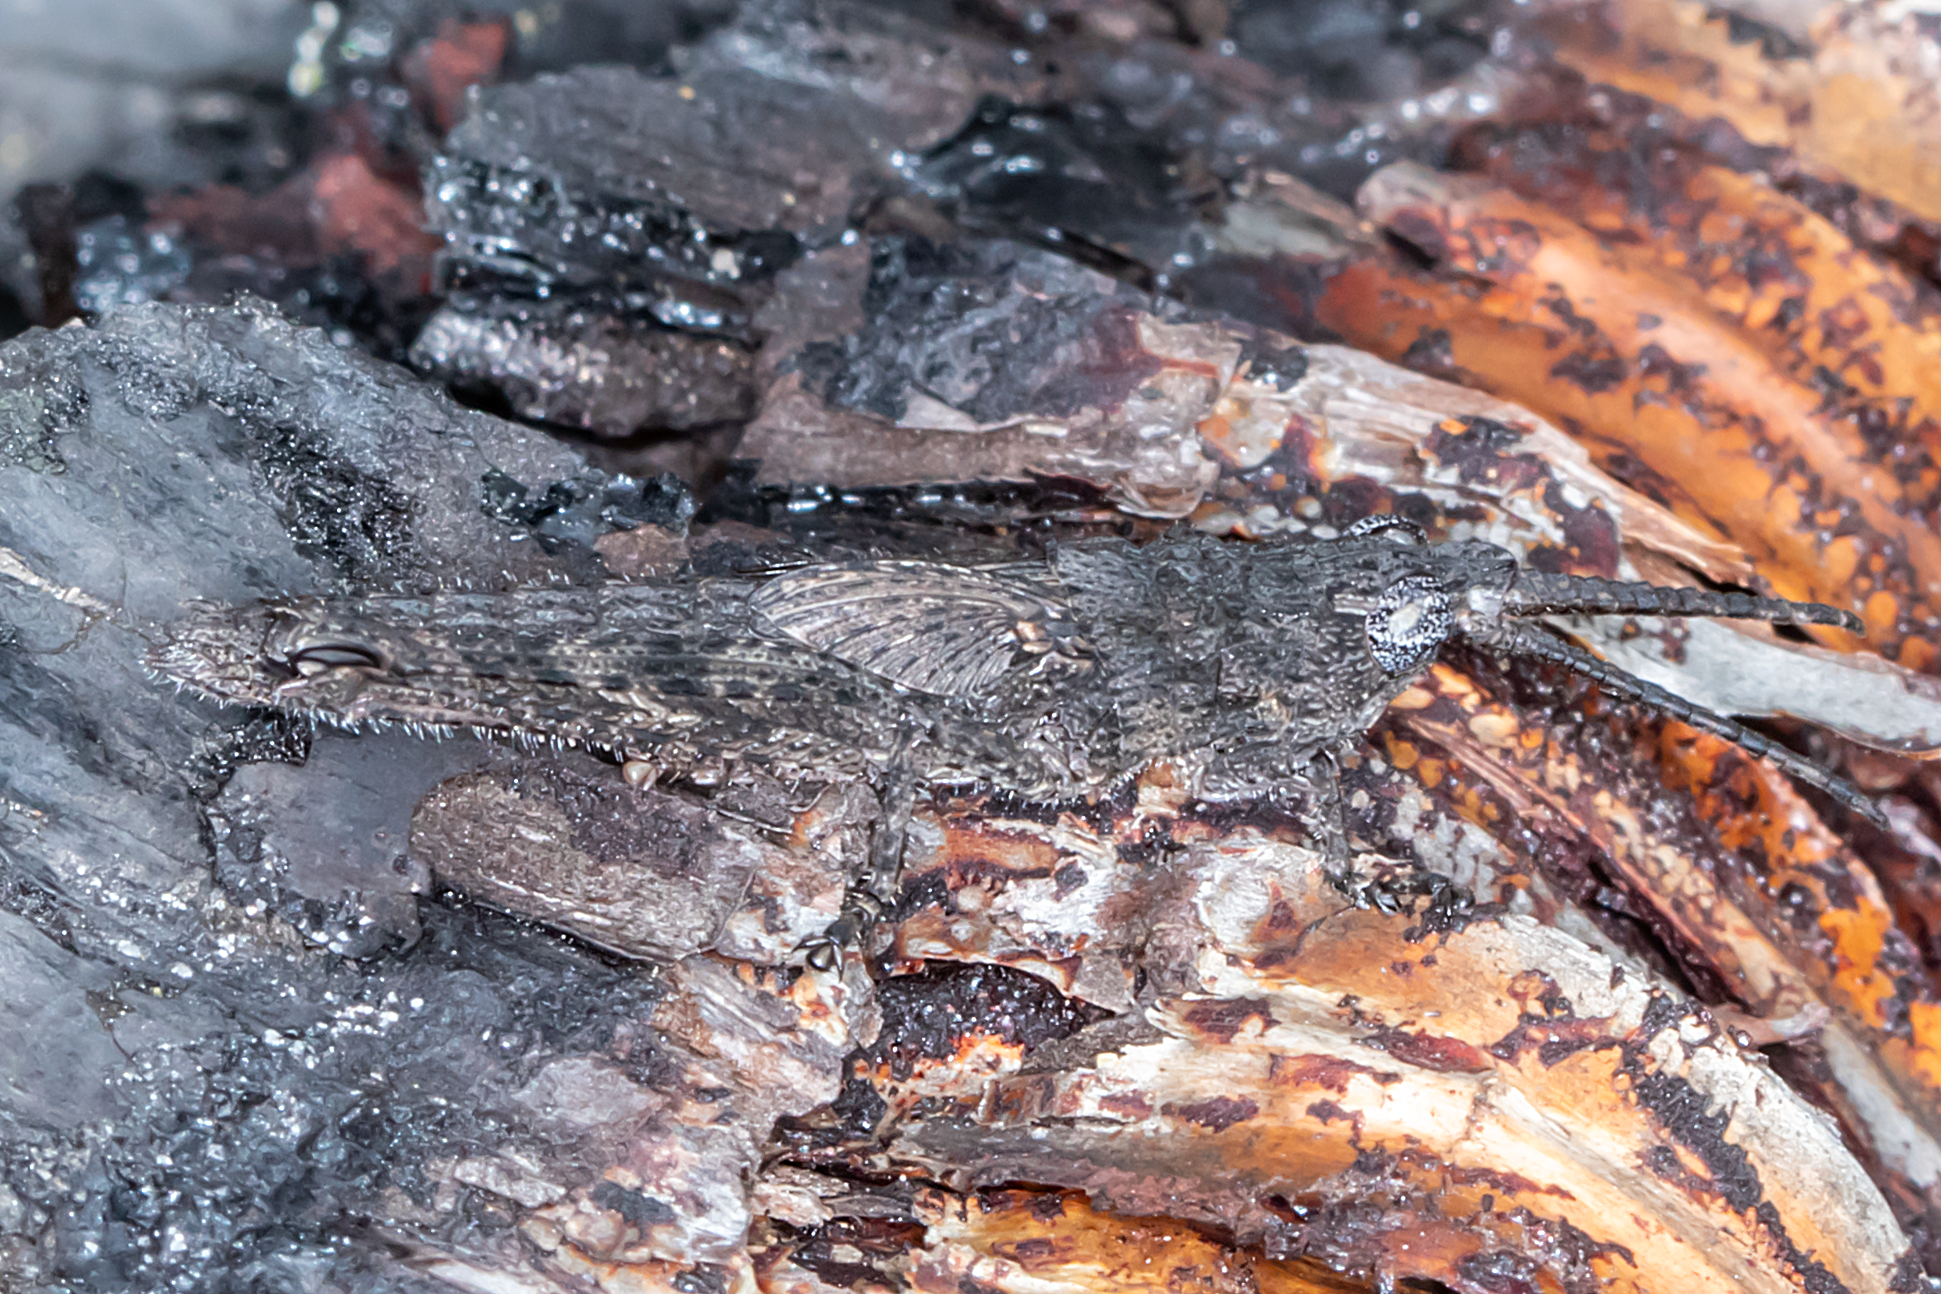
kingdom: Animalia
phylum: Arthropoda
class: Insecta
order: Orthoptera
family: Acrididae
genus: Coryphistes
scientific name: Coryphistes ruricola
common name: Bark-mimicking grasshopper
